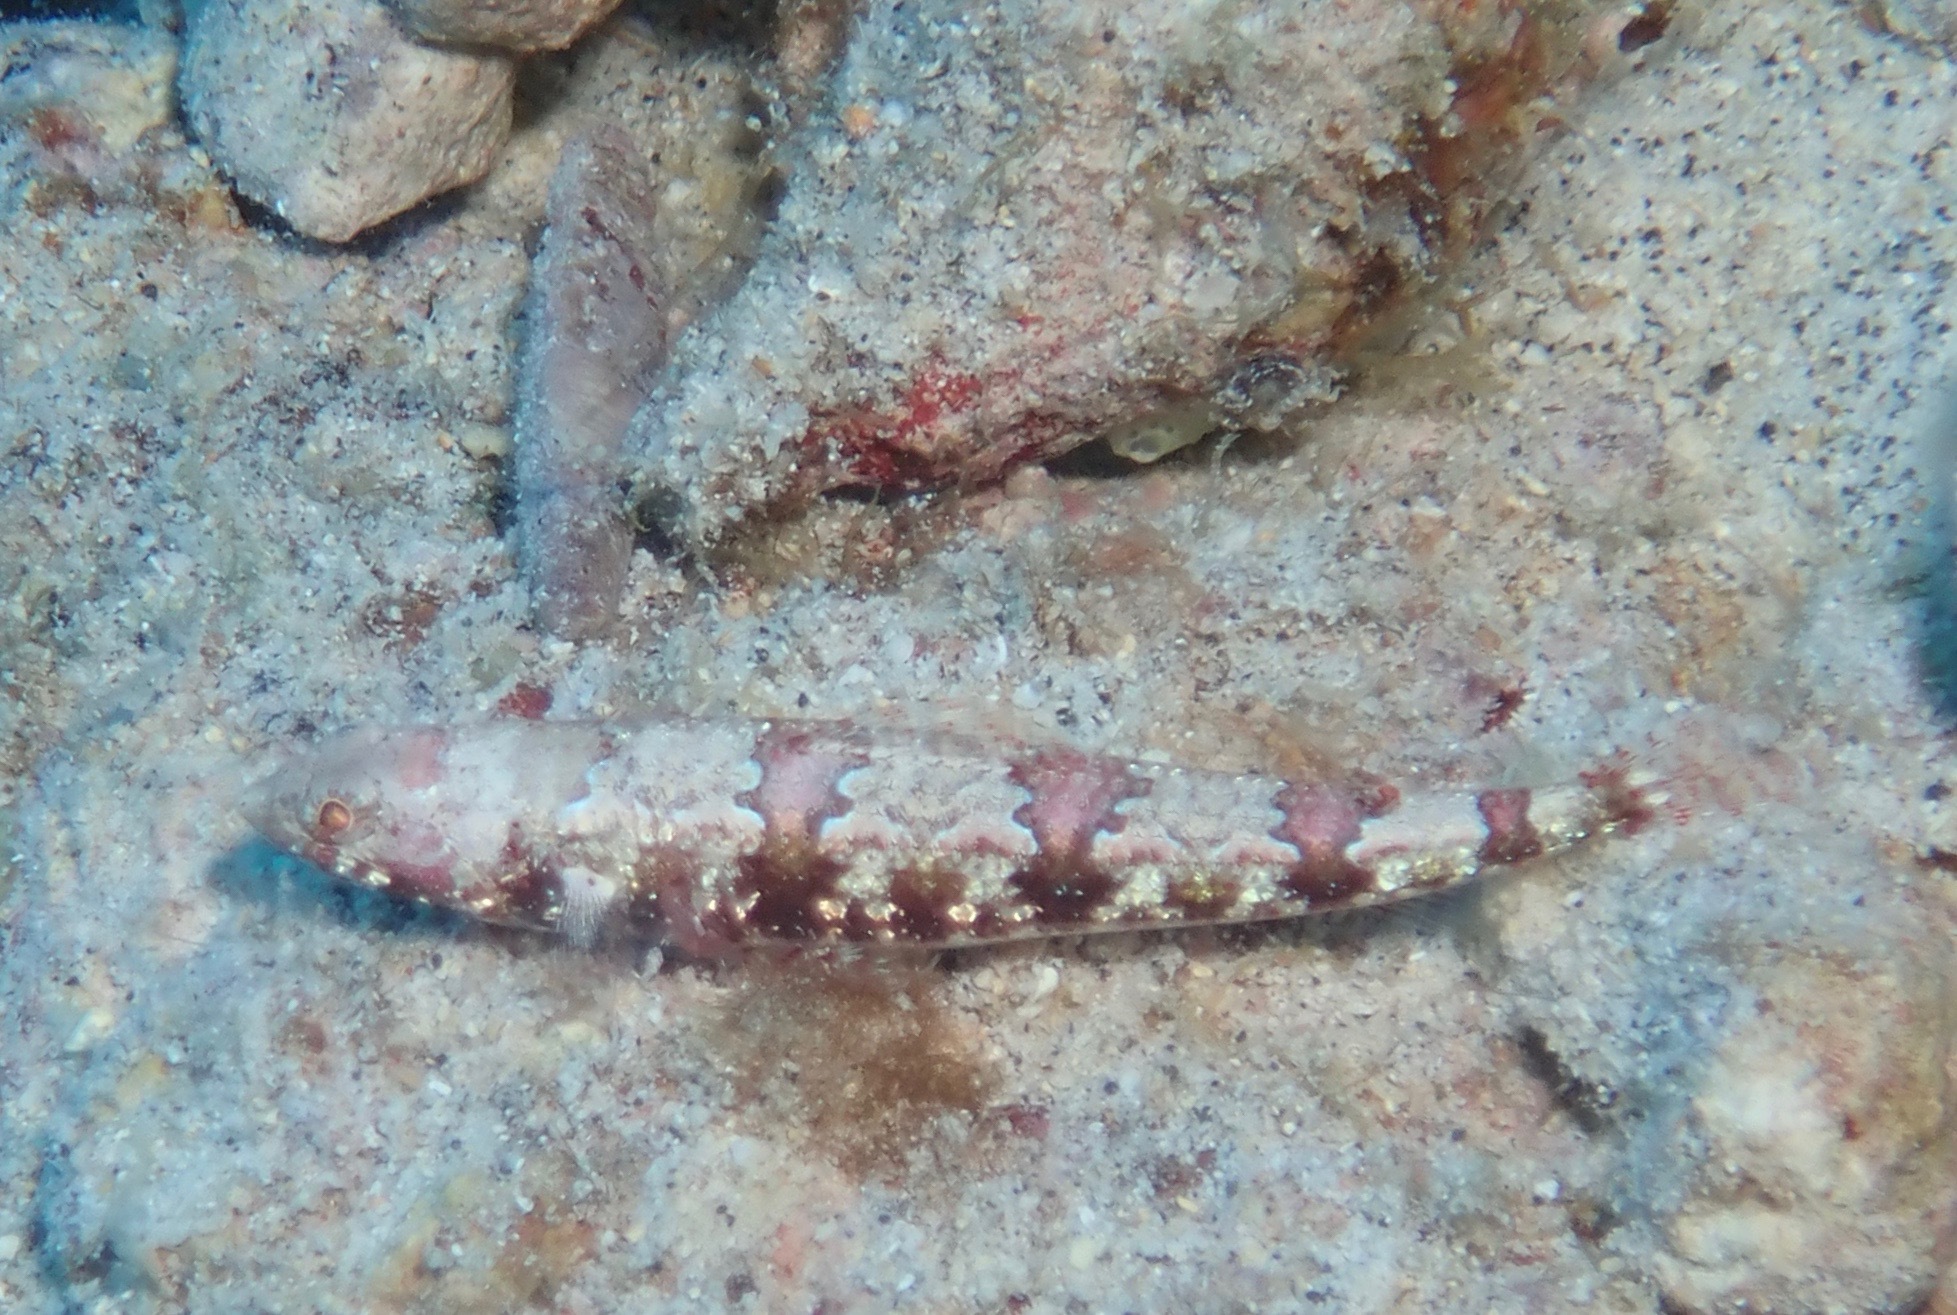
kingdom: Animalia
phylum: Chordata
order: Aulopiformes
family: Synodontidae
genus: Synodus
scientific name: Synodus rubromarmoratus
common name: Redmarbled lizardfish
